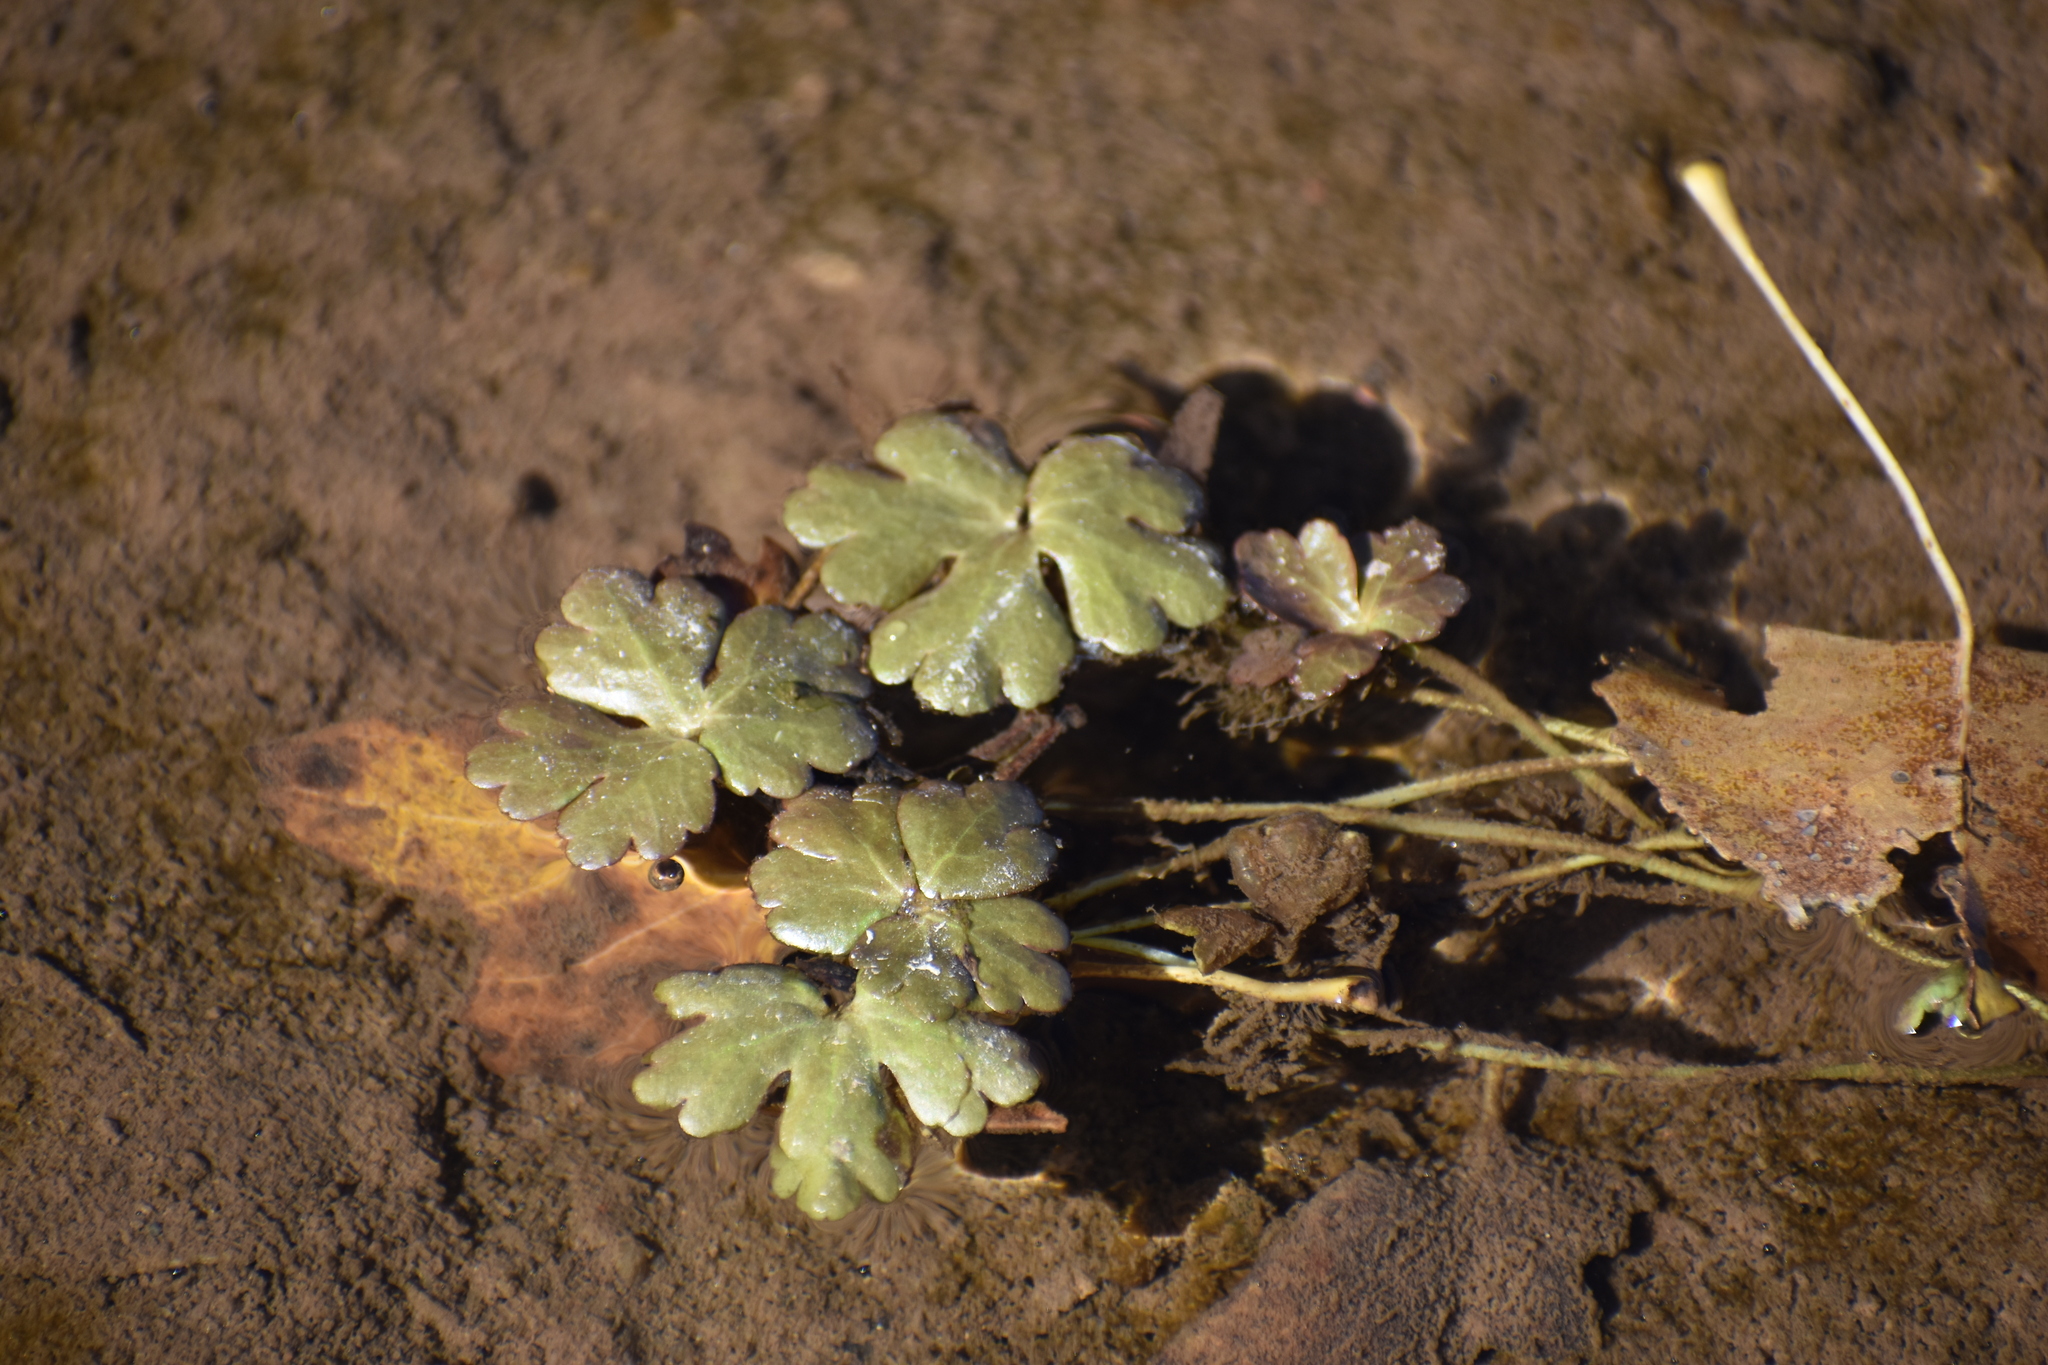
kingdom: Plantae
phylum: Tracheophyta
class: Magnoliopsida
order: Ranunculales
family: Ranunculaceae
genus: Ranunculus
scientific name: Ranunculus sceleratus
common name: Celery-leaved buttercup
